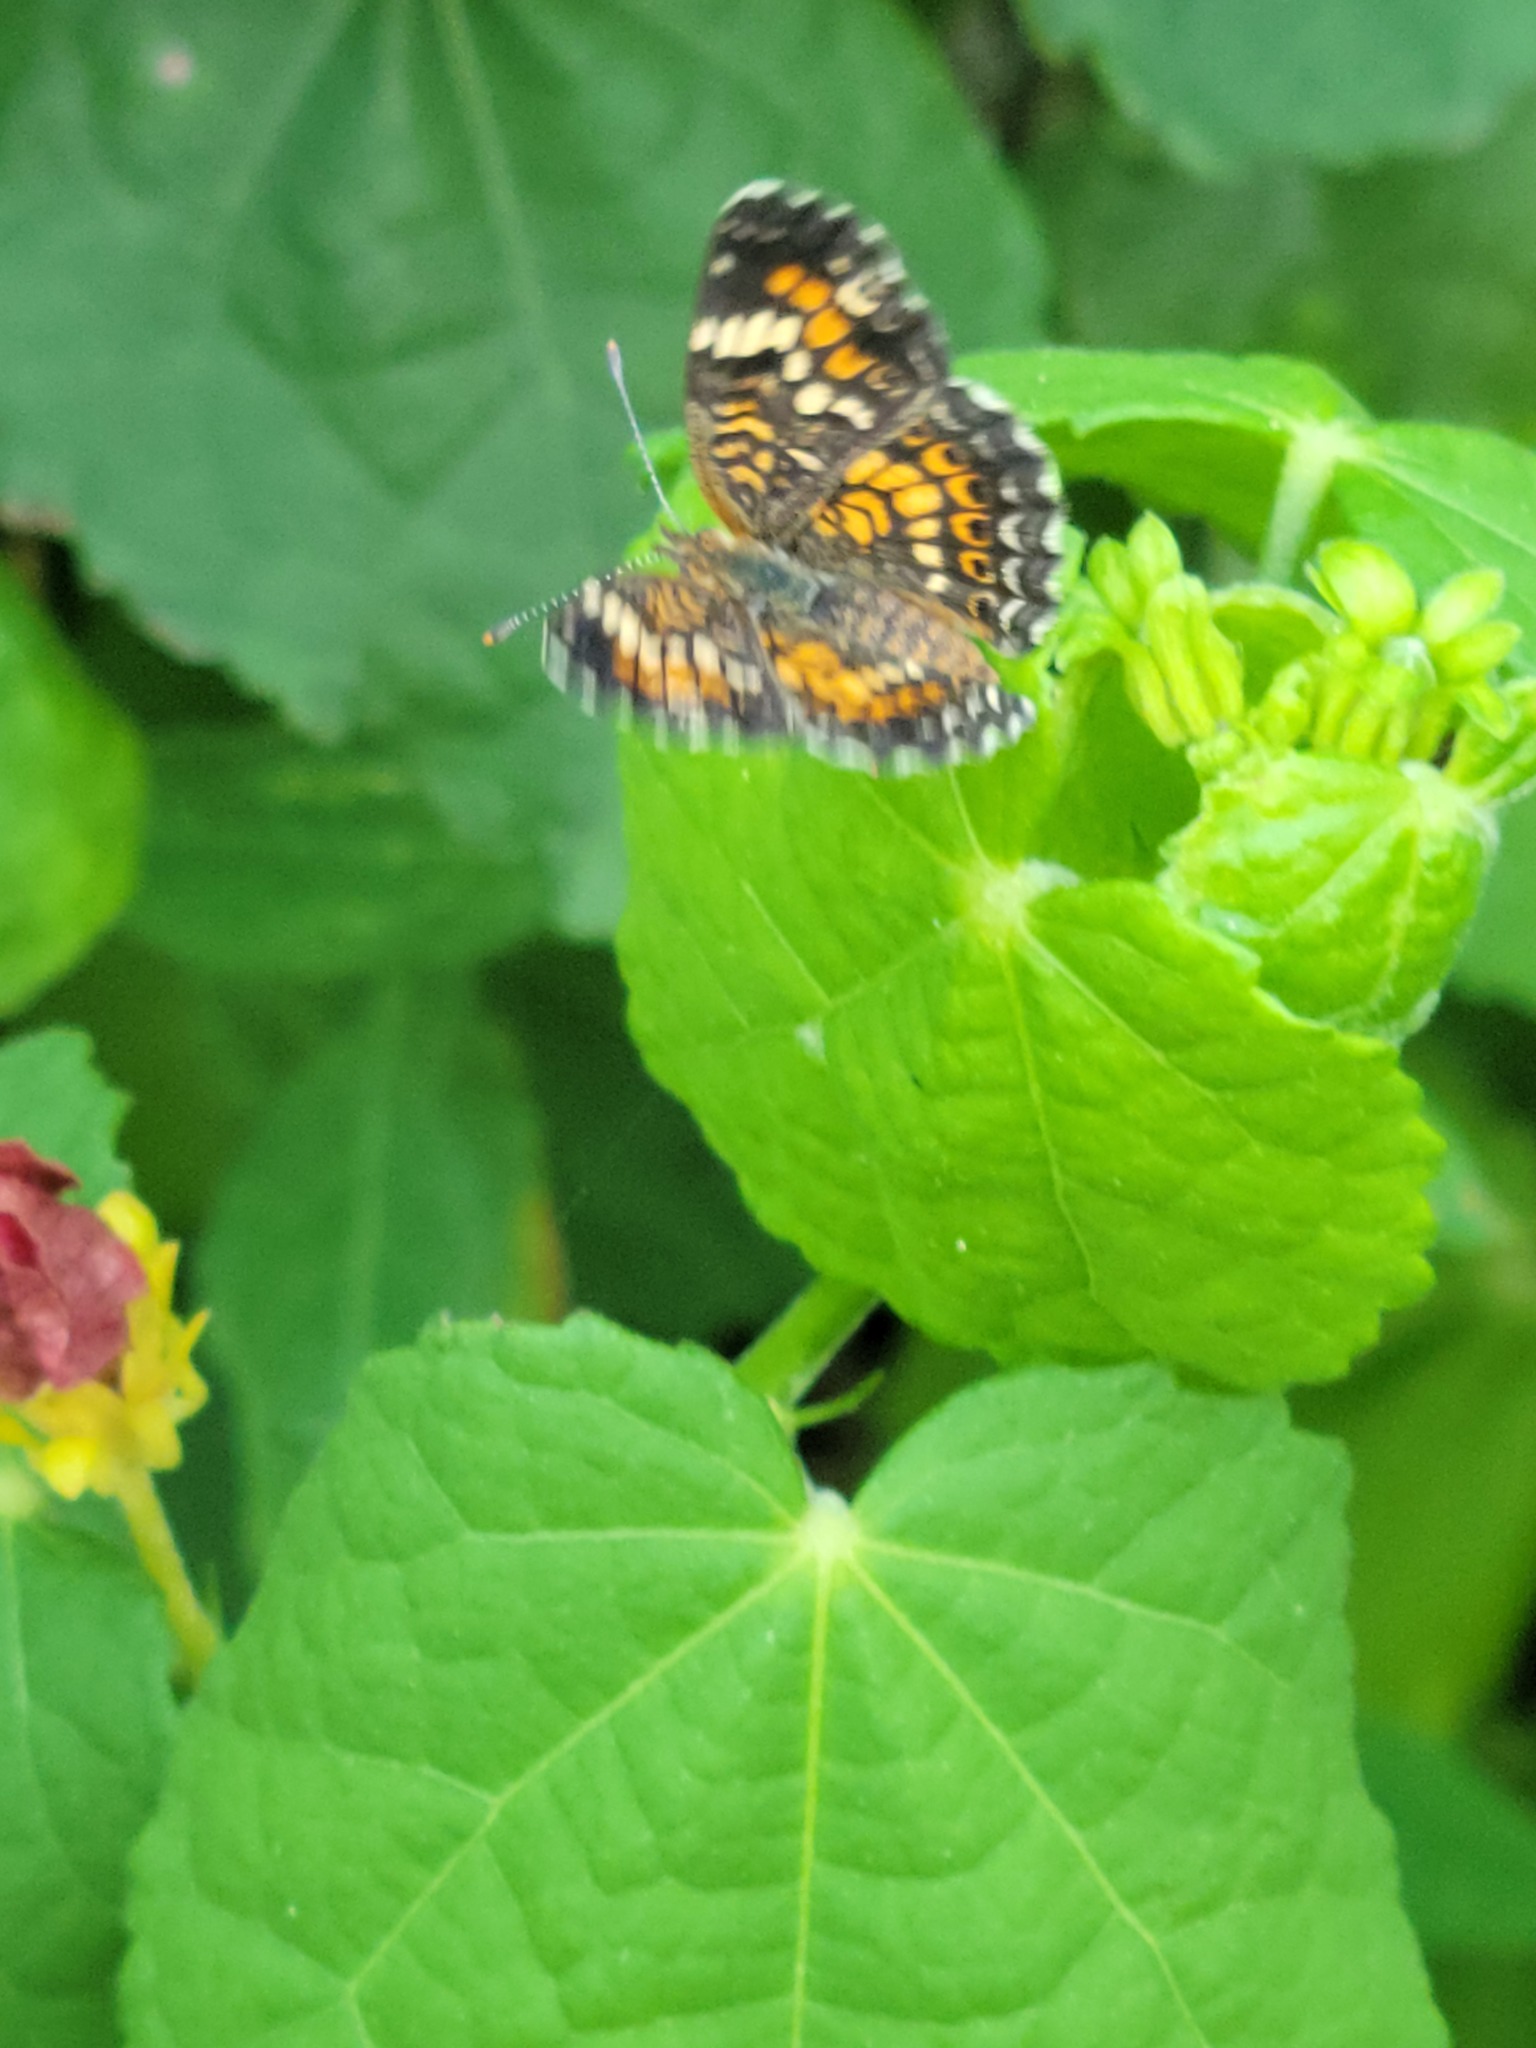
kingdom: Animalia
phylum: Arthropoda
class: Insecta
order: Lepidoptera
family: Nymphalidae
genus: Phyciodes
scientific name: Phyciodes phaon
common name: Phaon crescent
